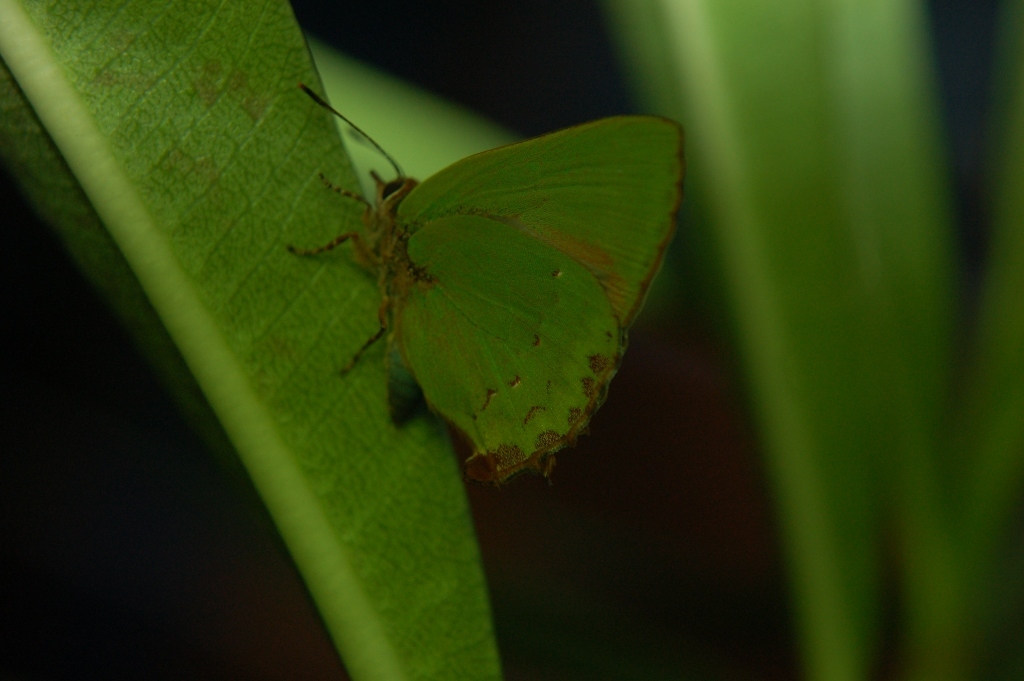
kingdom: Animalia
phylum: Arthropoda
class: Insecta
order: Lepidoptera
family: Lycaenidae
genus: Cyanophrys
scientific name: Cyanophrys longula
